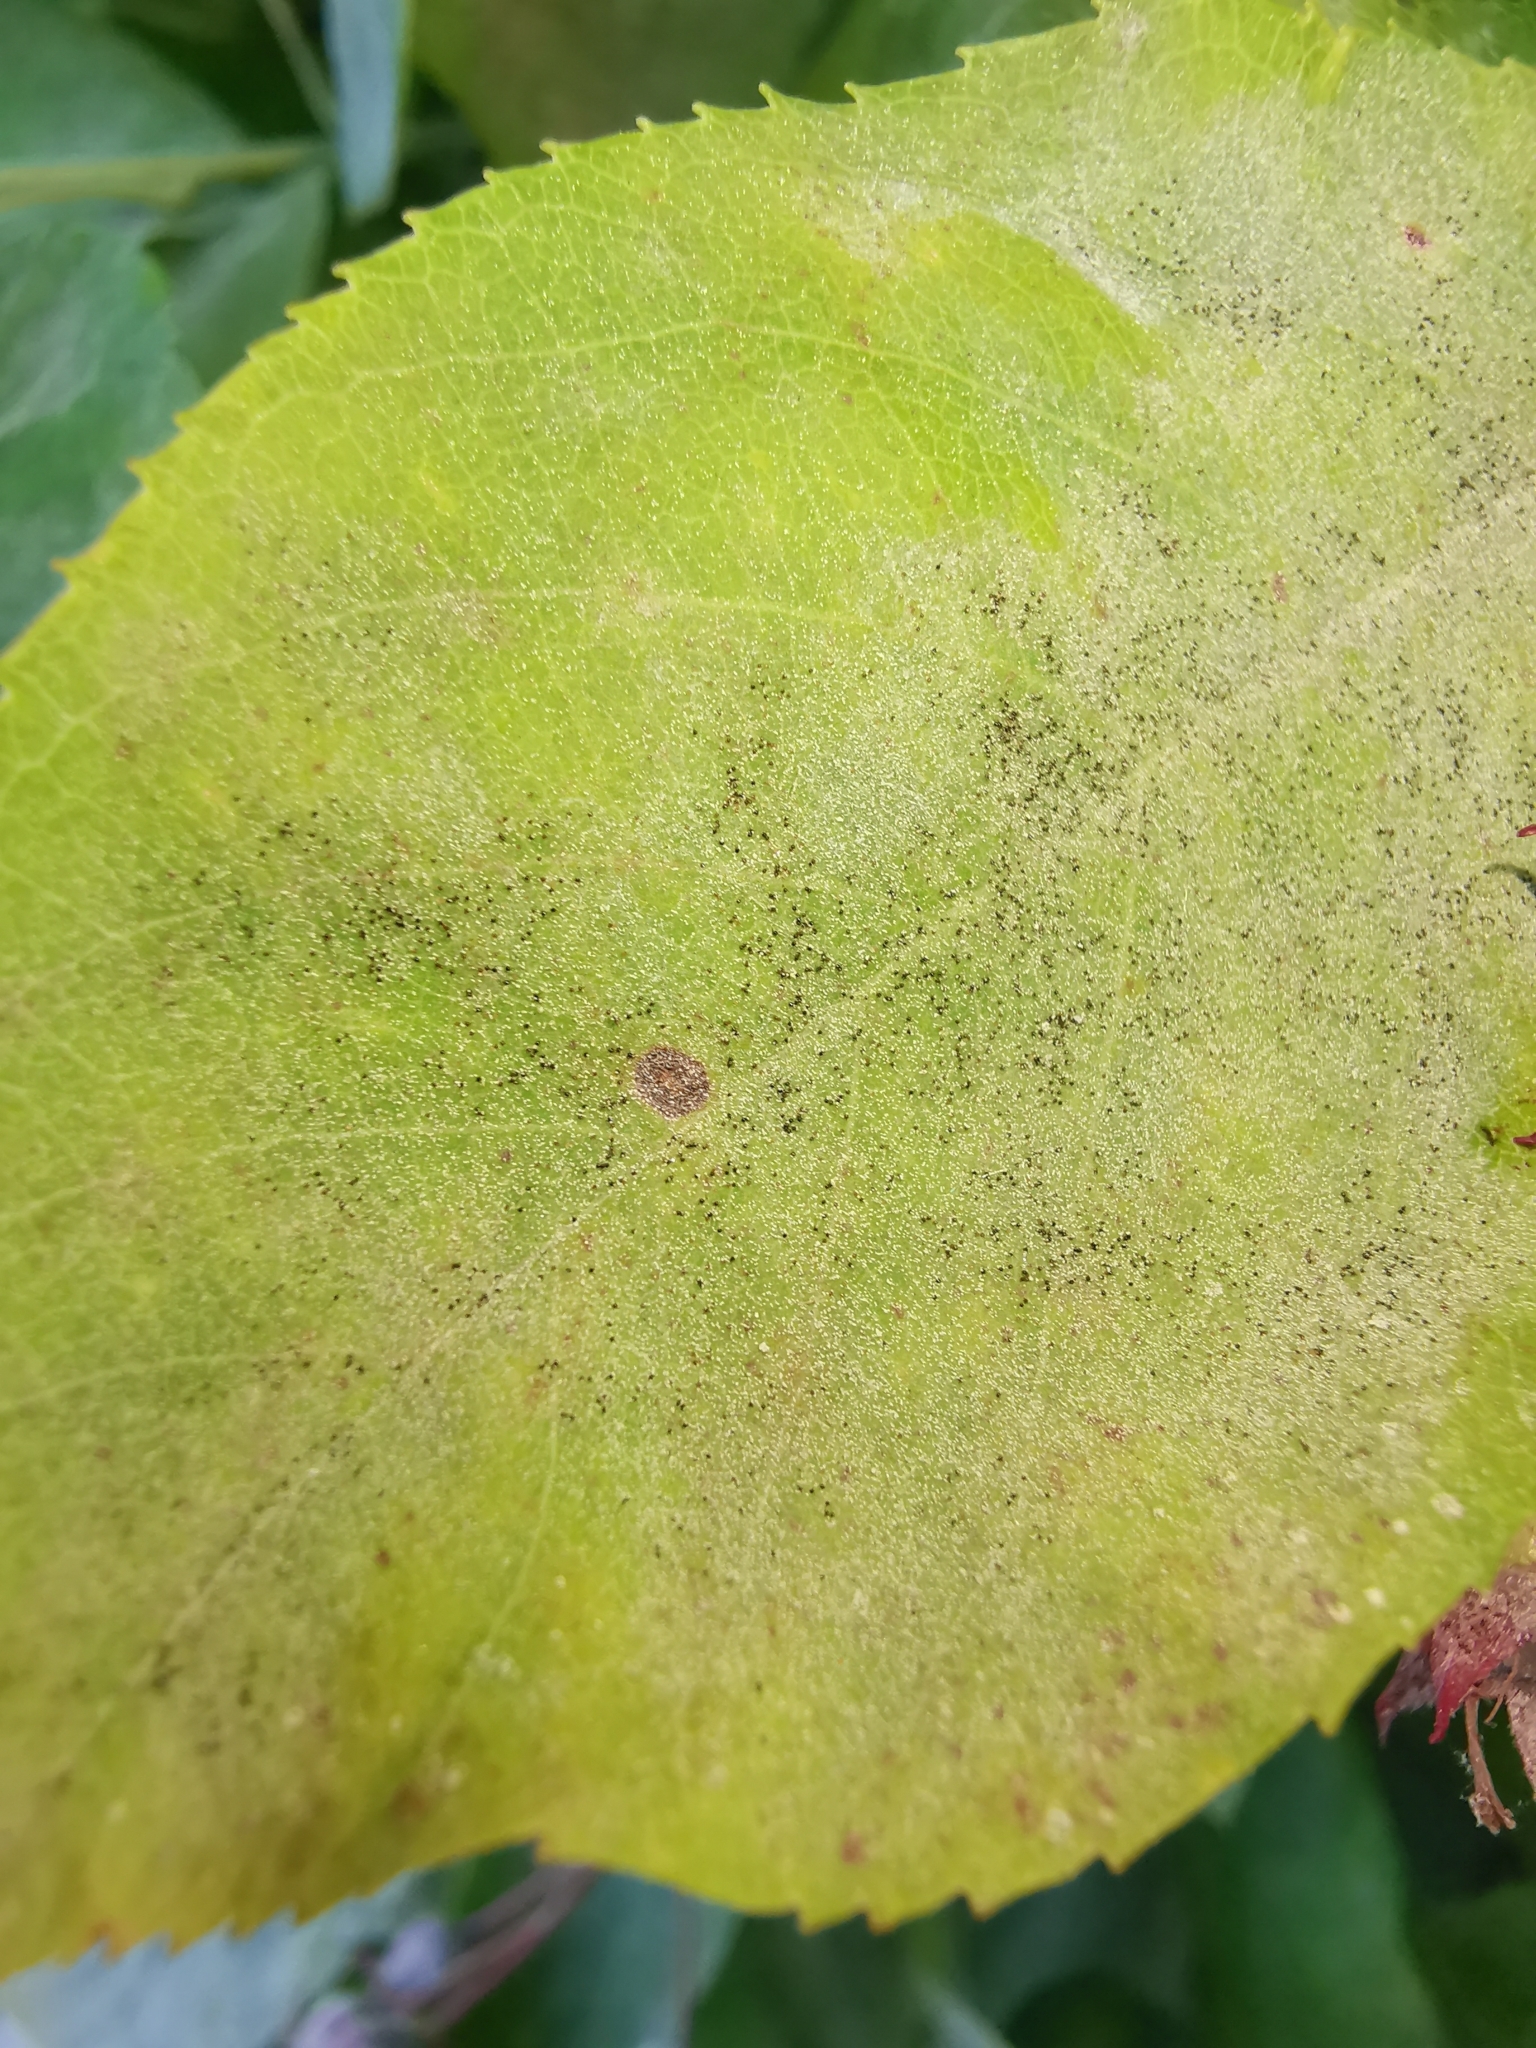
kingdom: Fungi
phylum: Ascomycota
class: Leotiomycetes
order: Helotiales
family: Erysiphaceae
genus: Podosphaera
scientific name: Podosphaera amelanchieris
